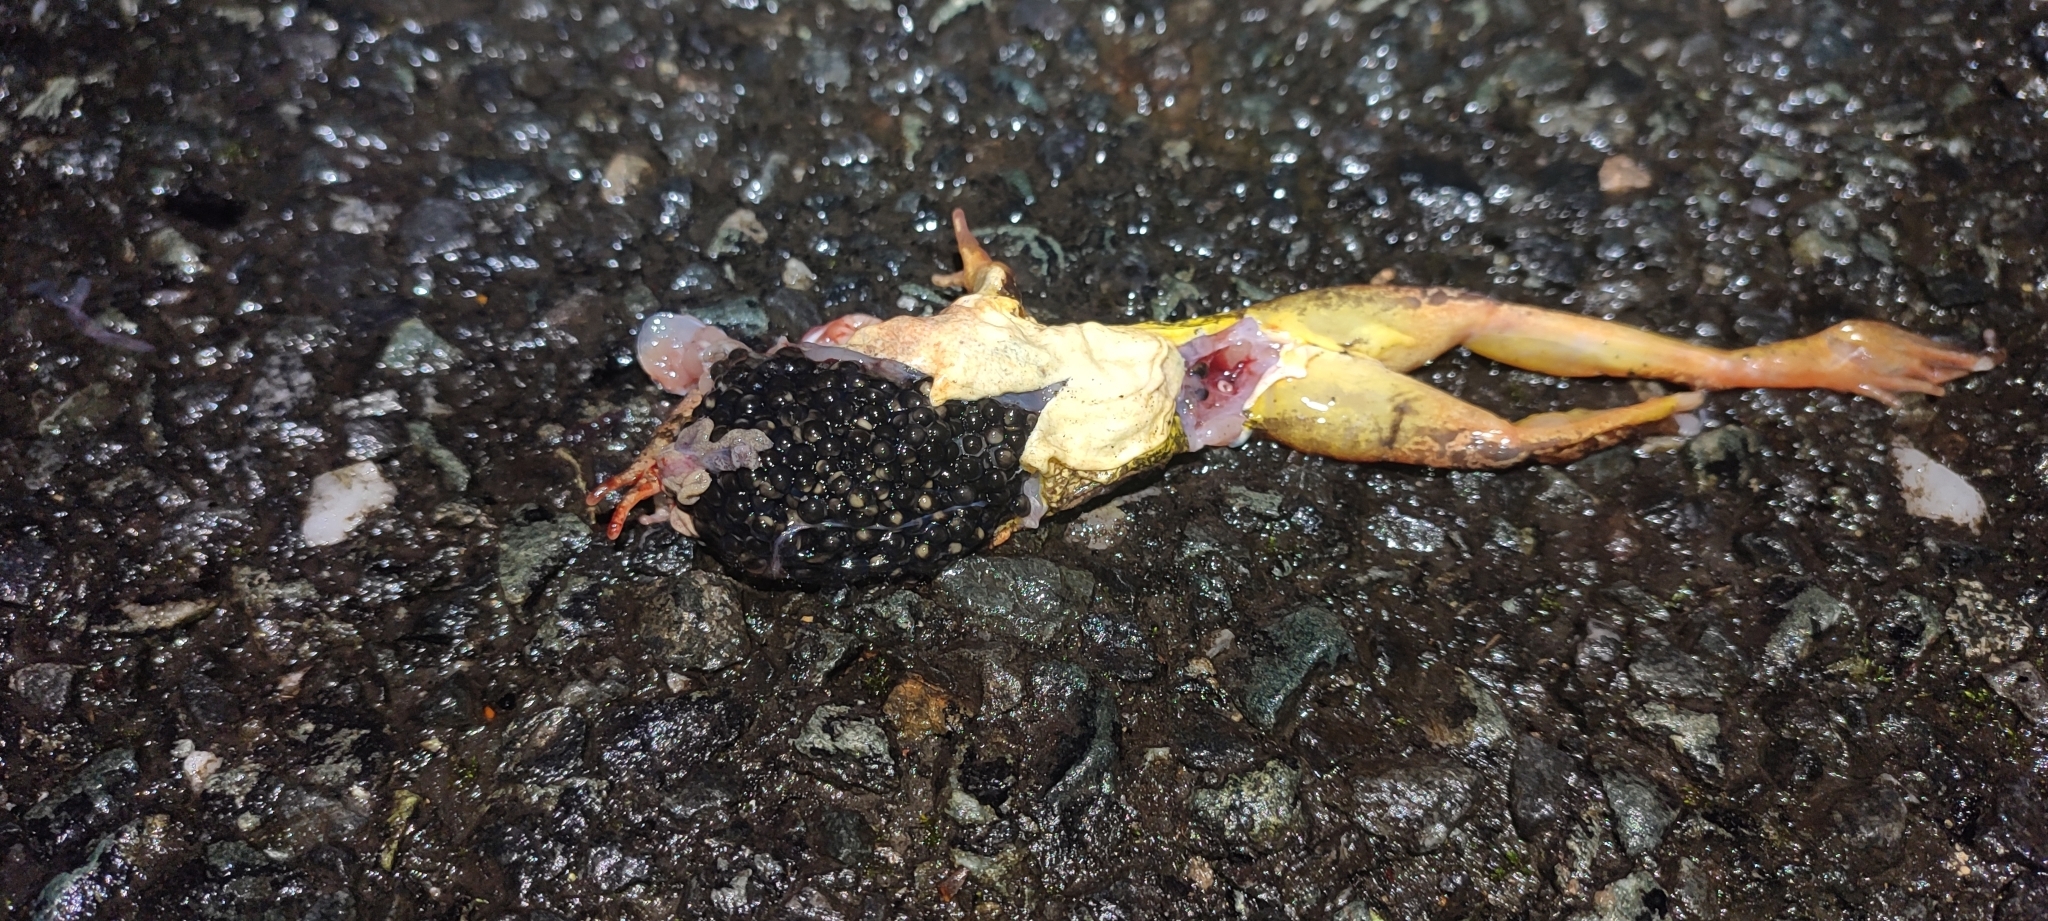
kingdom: Animalia
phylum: Chordata
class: Amphibia
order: Anura
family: Ranidae
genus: Rana
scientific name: Rana dalmatina
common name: Agile frog
